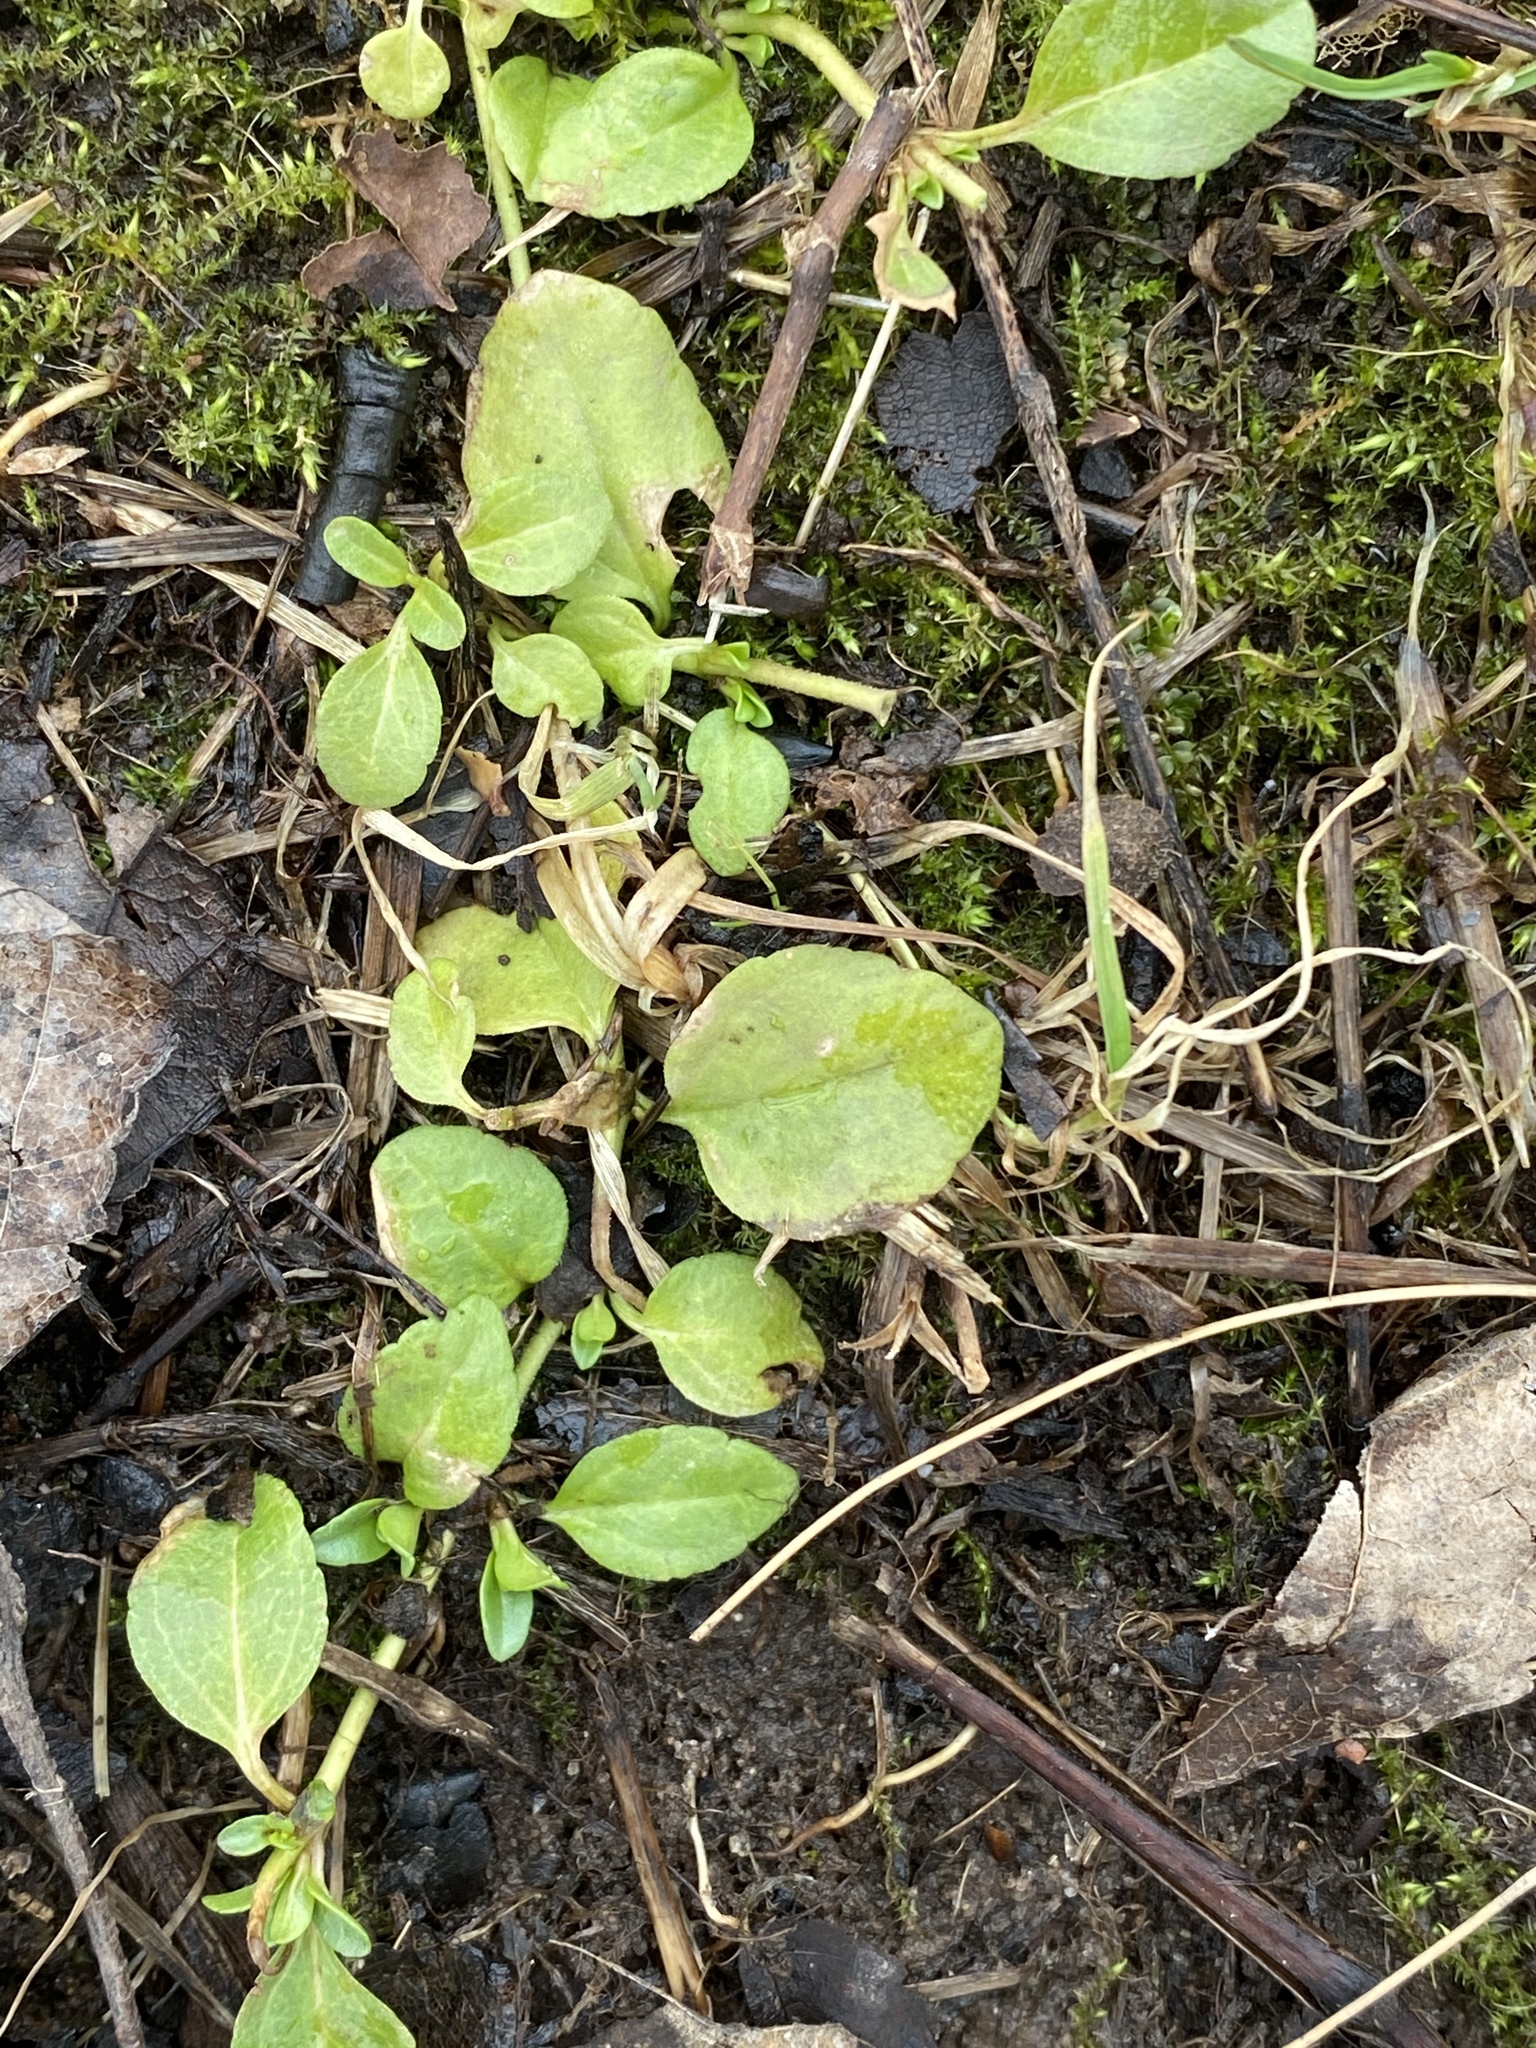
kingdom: Plantae
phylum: Tracheophyta
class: Magnoliopsida
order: Lamiales
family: Plantaginaceae
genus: Veronica
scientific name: Veronica serpyllifolia
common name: Thyme-leaved speedwell
